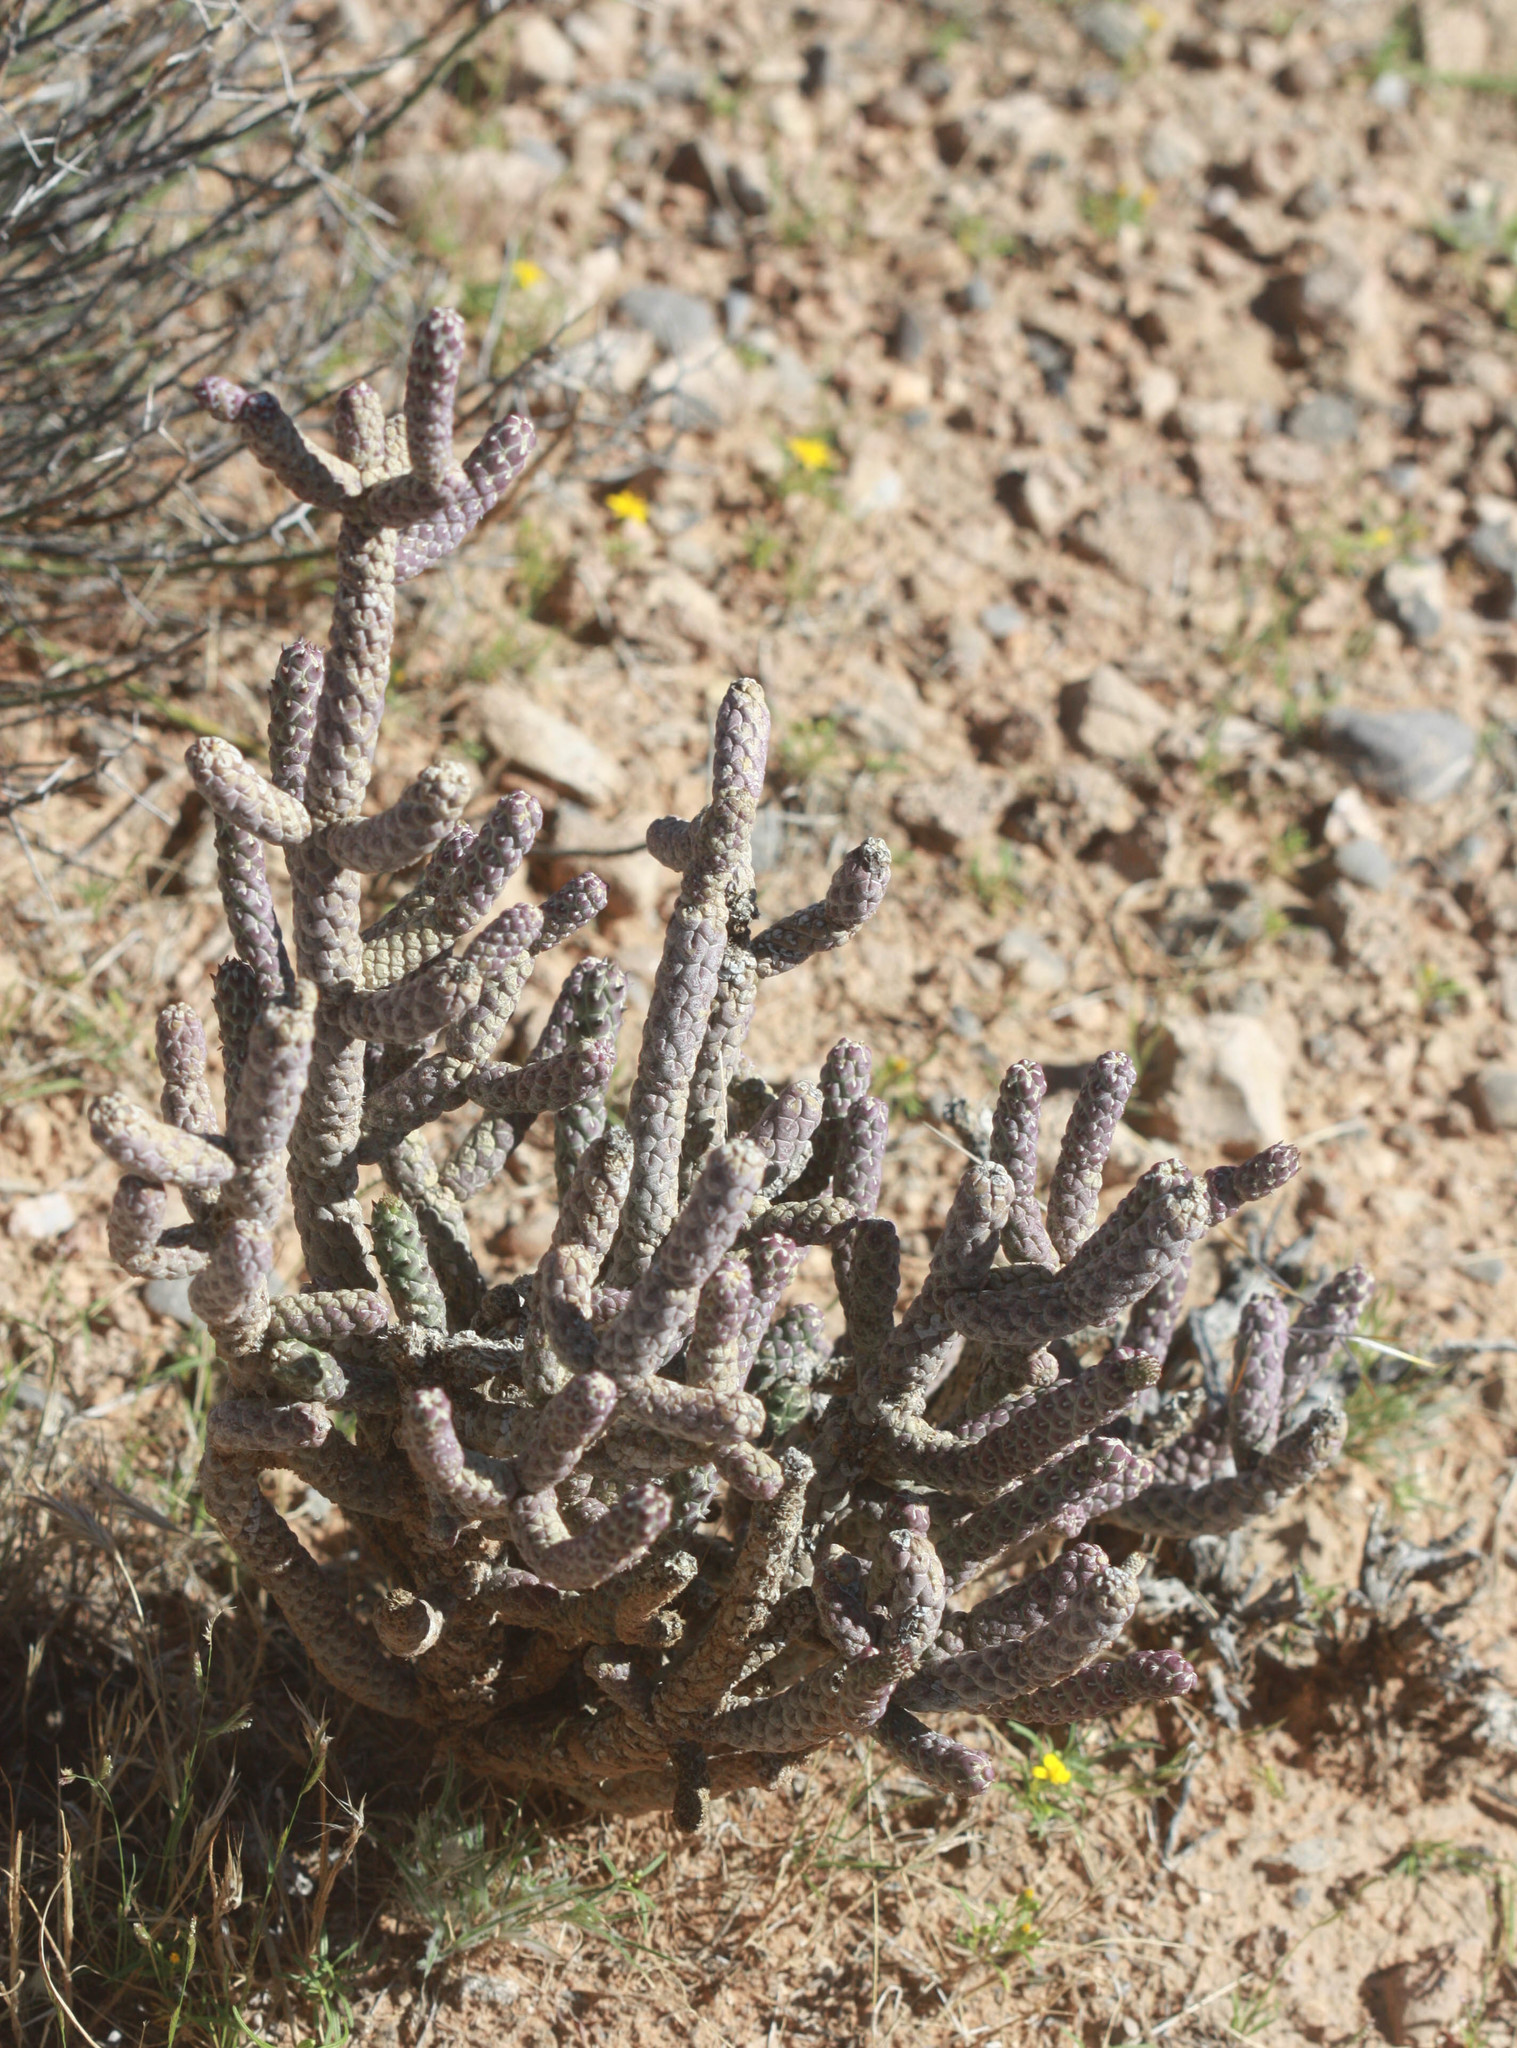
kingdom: Plantae
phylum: Tracheophyta
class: Magnoliopsida
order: Caryophyllales
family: Cactaceae
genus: Cylindropuntia
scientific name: Cylindropuntia ramosissima
